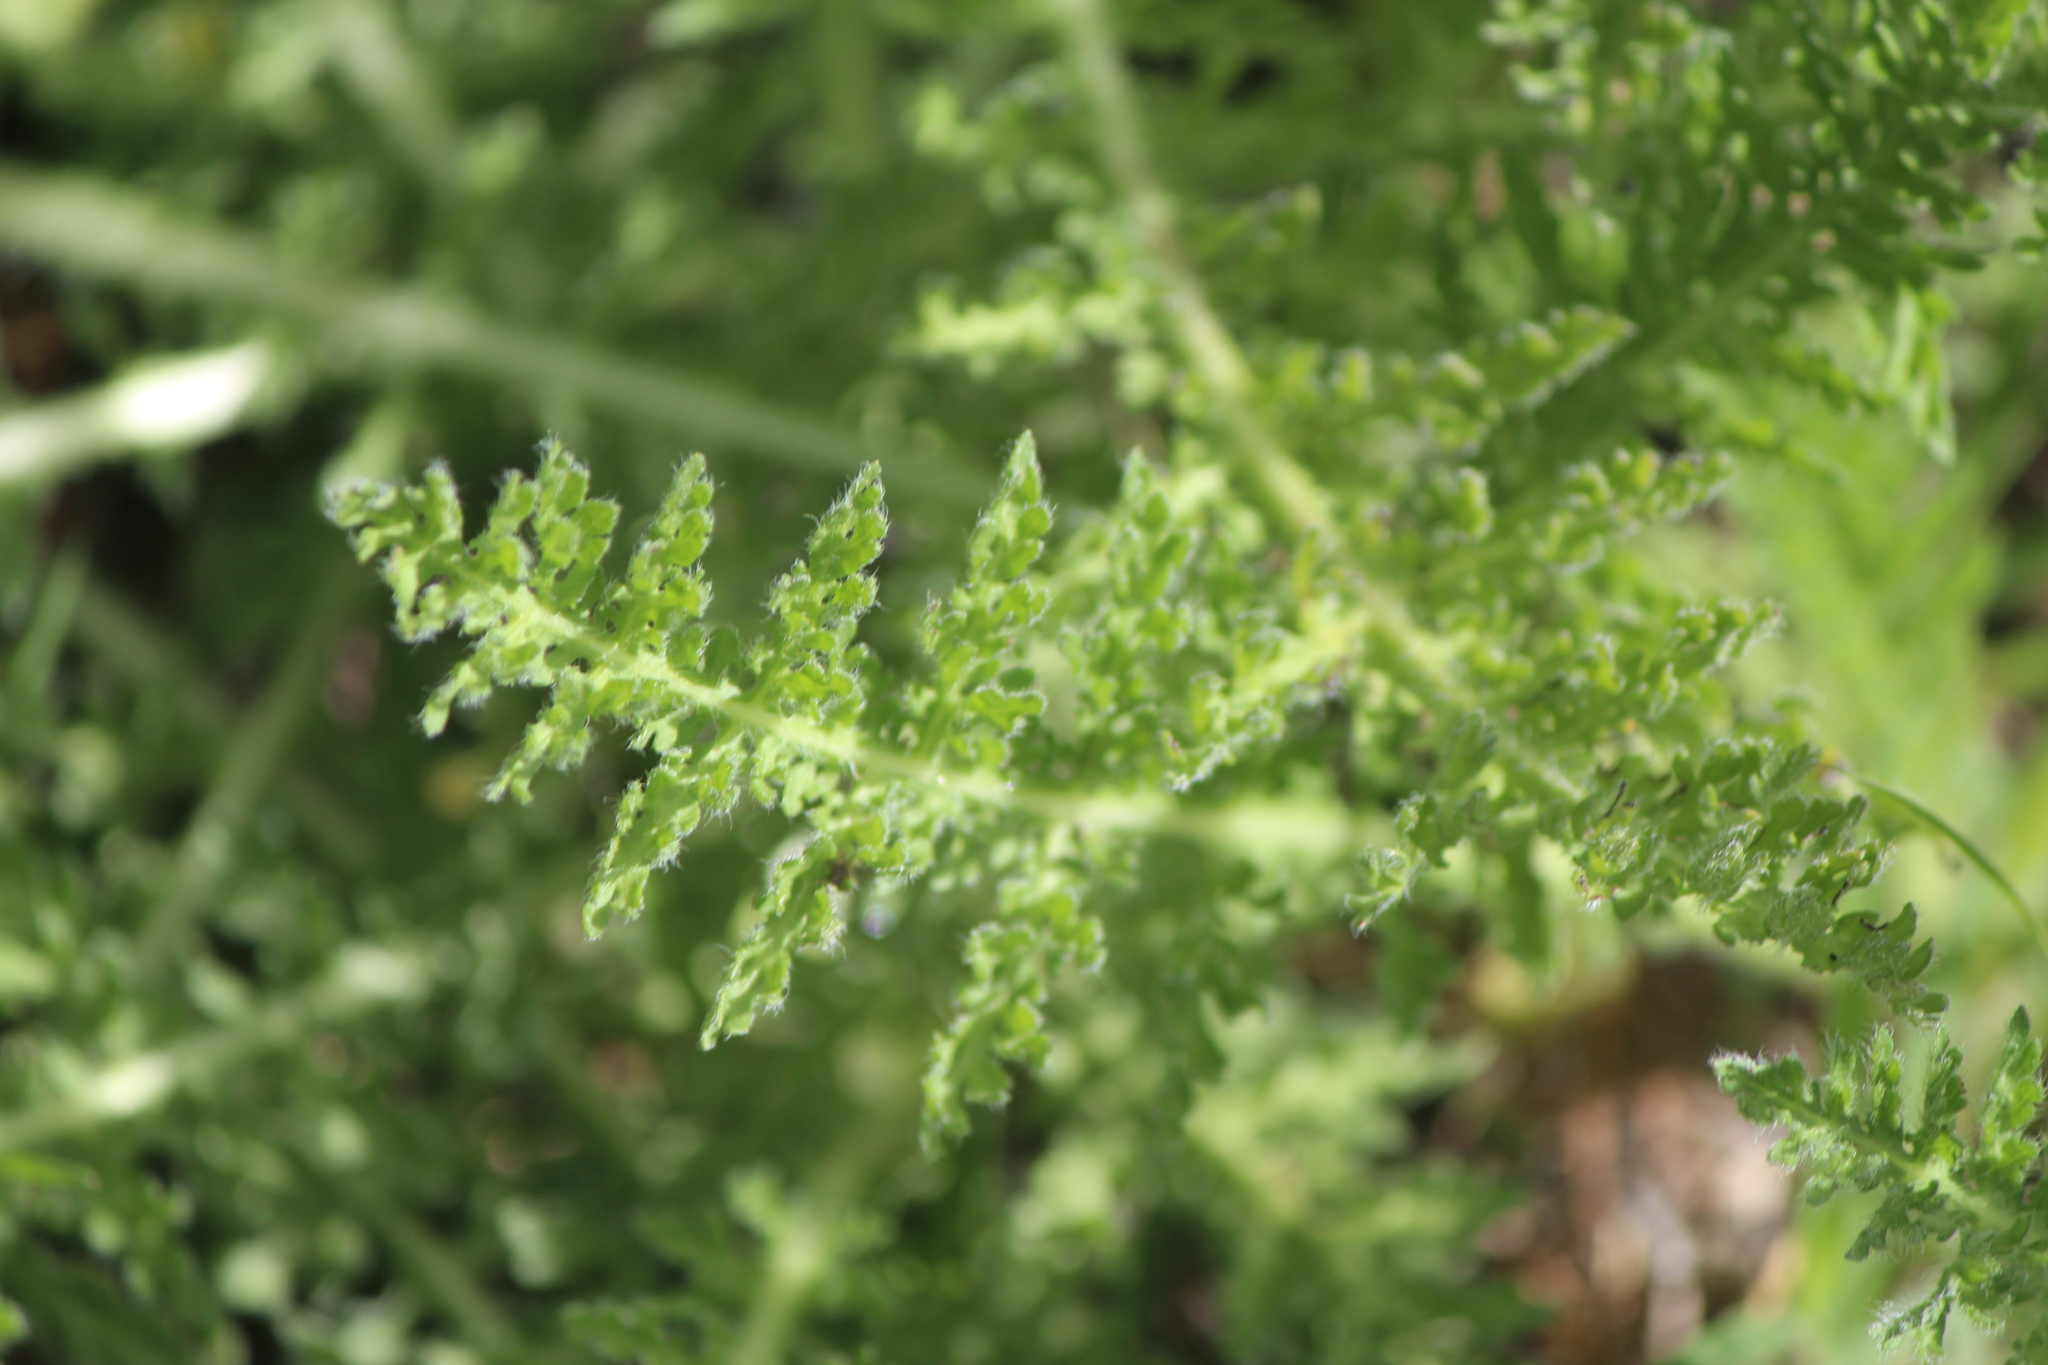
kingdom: Plantae
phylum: Tracheophyta
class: Magnoliopsida
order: Asterales
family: Asteraceae
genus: Hybridella
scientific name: Hybridella globosa
